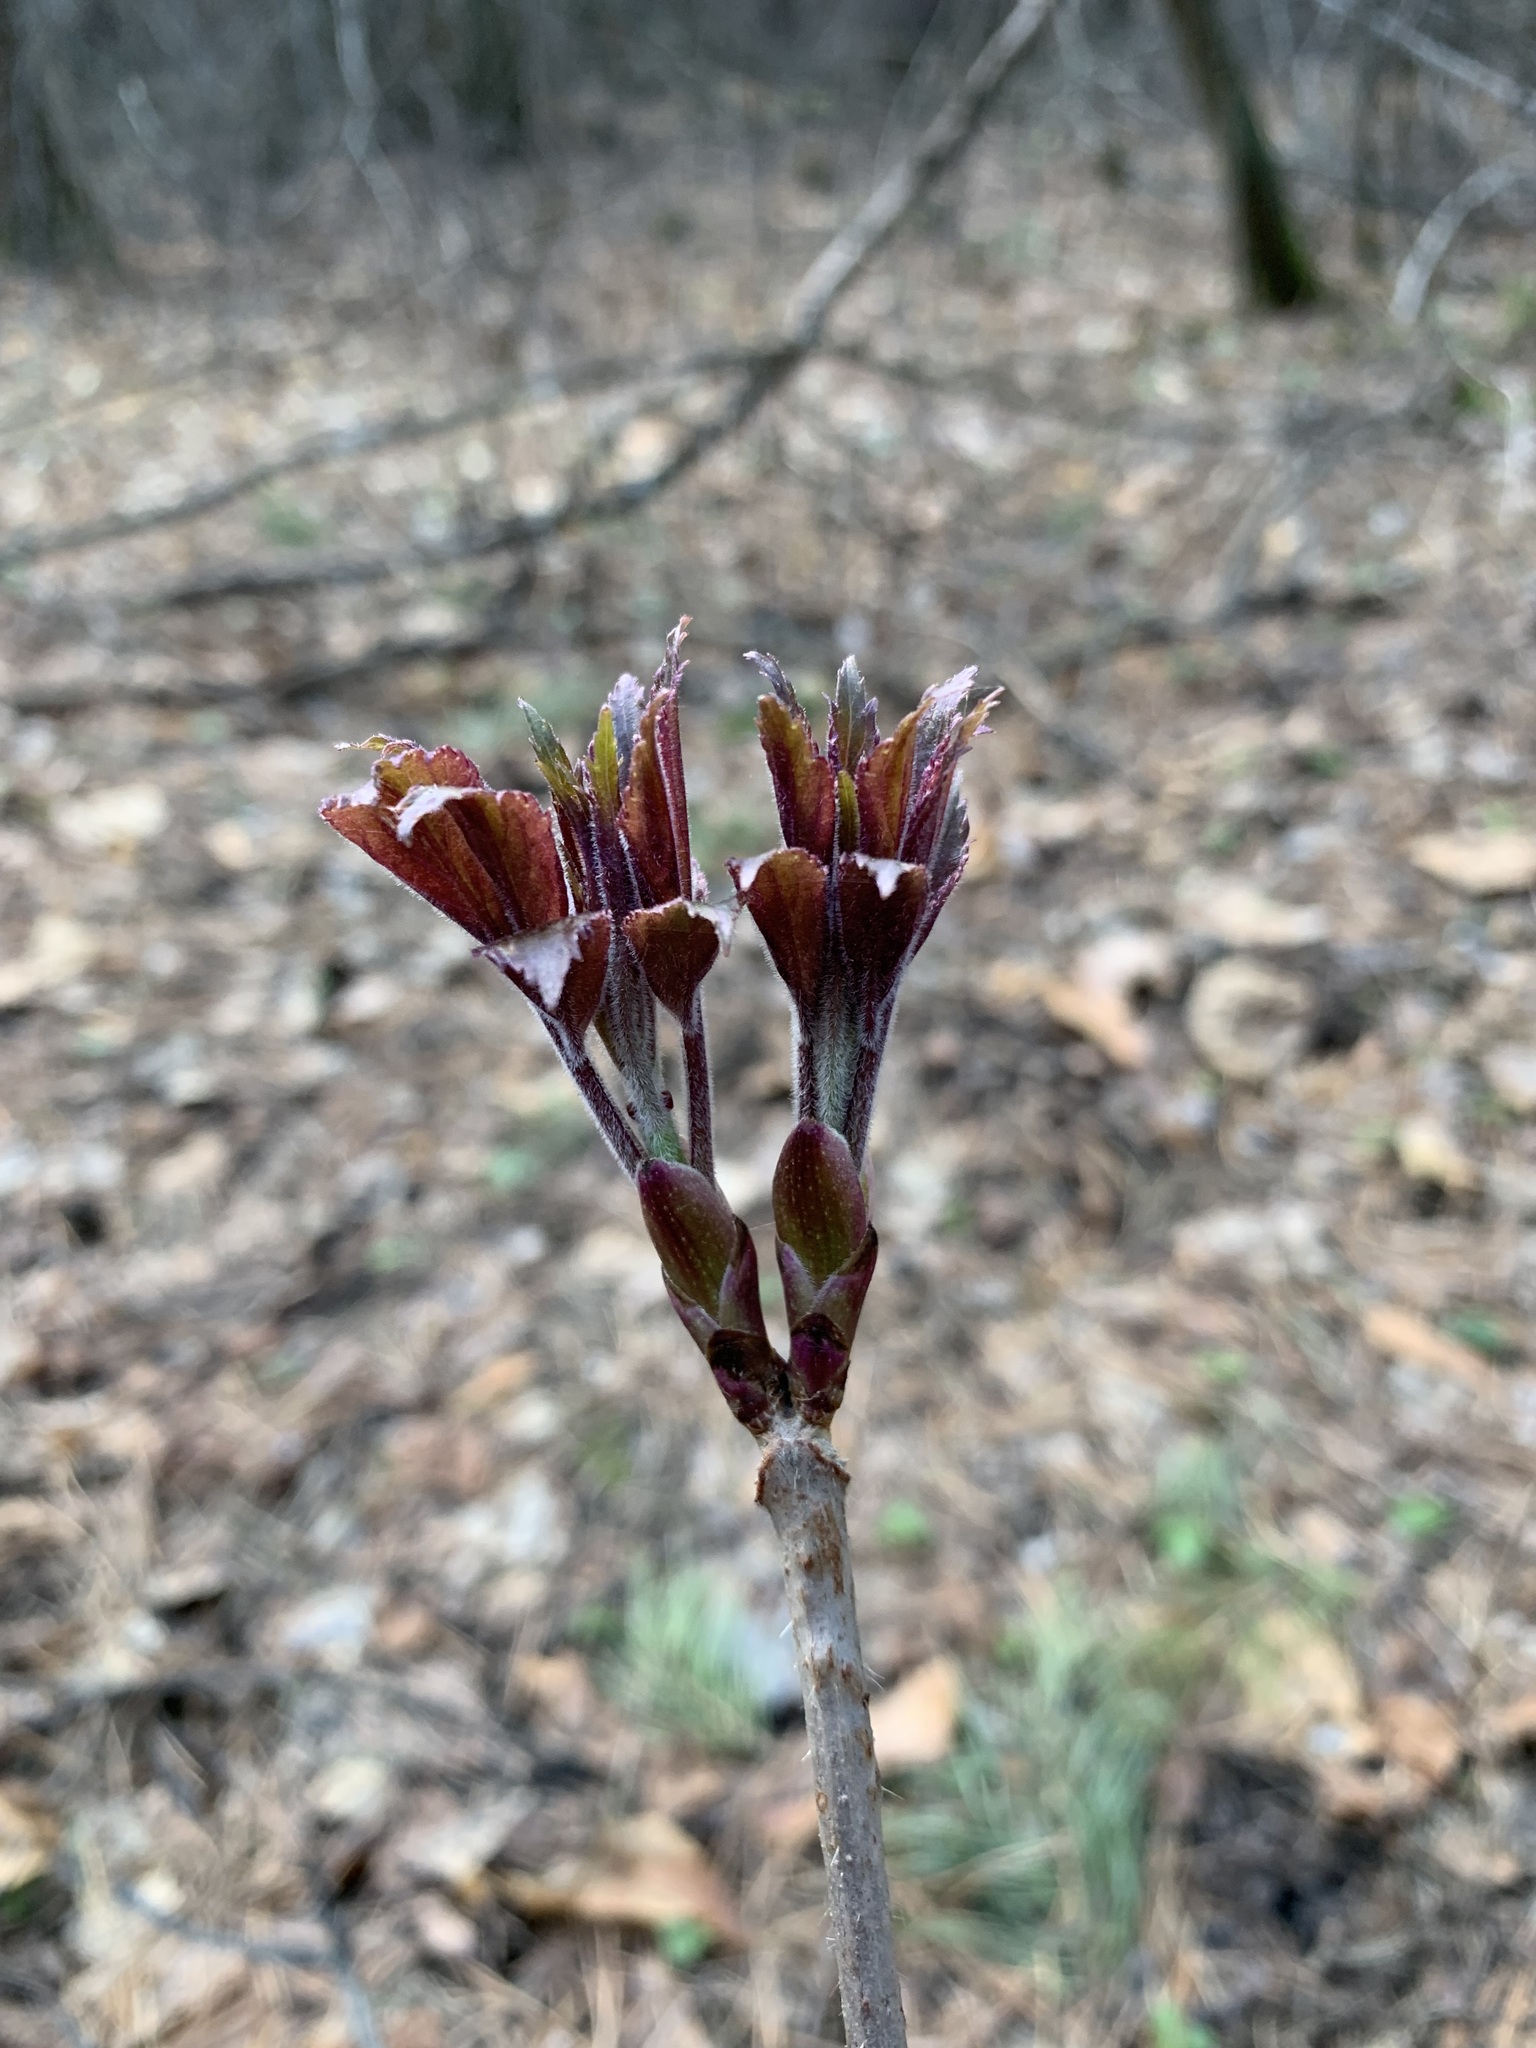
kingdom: Plantae
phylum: Tracheophyta
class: Magnoliopsida
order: Dipsacales
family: Viburnaceae
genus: Sambucus
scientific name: Sambucus sibirica
